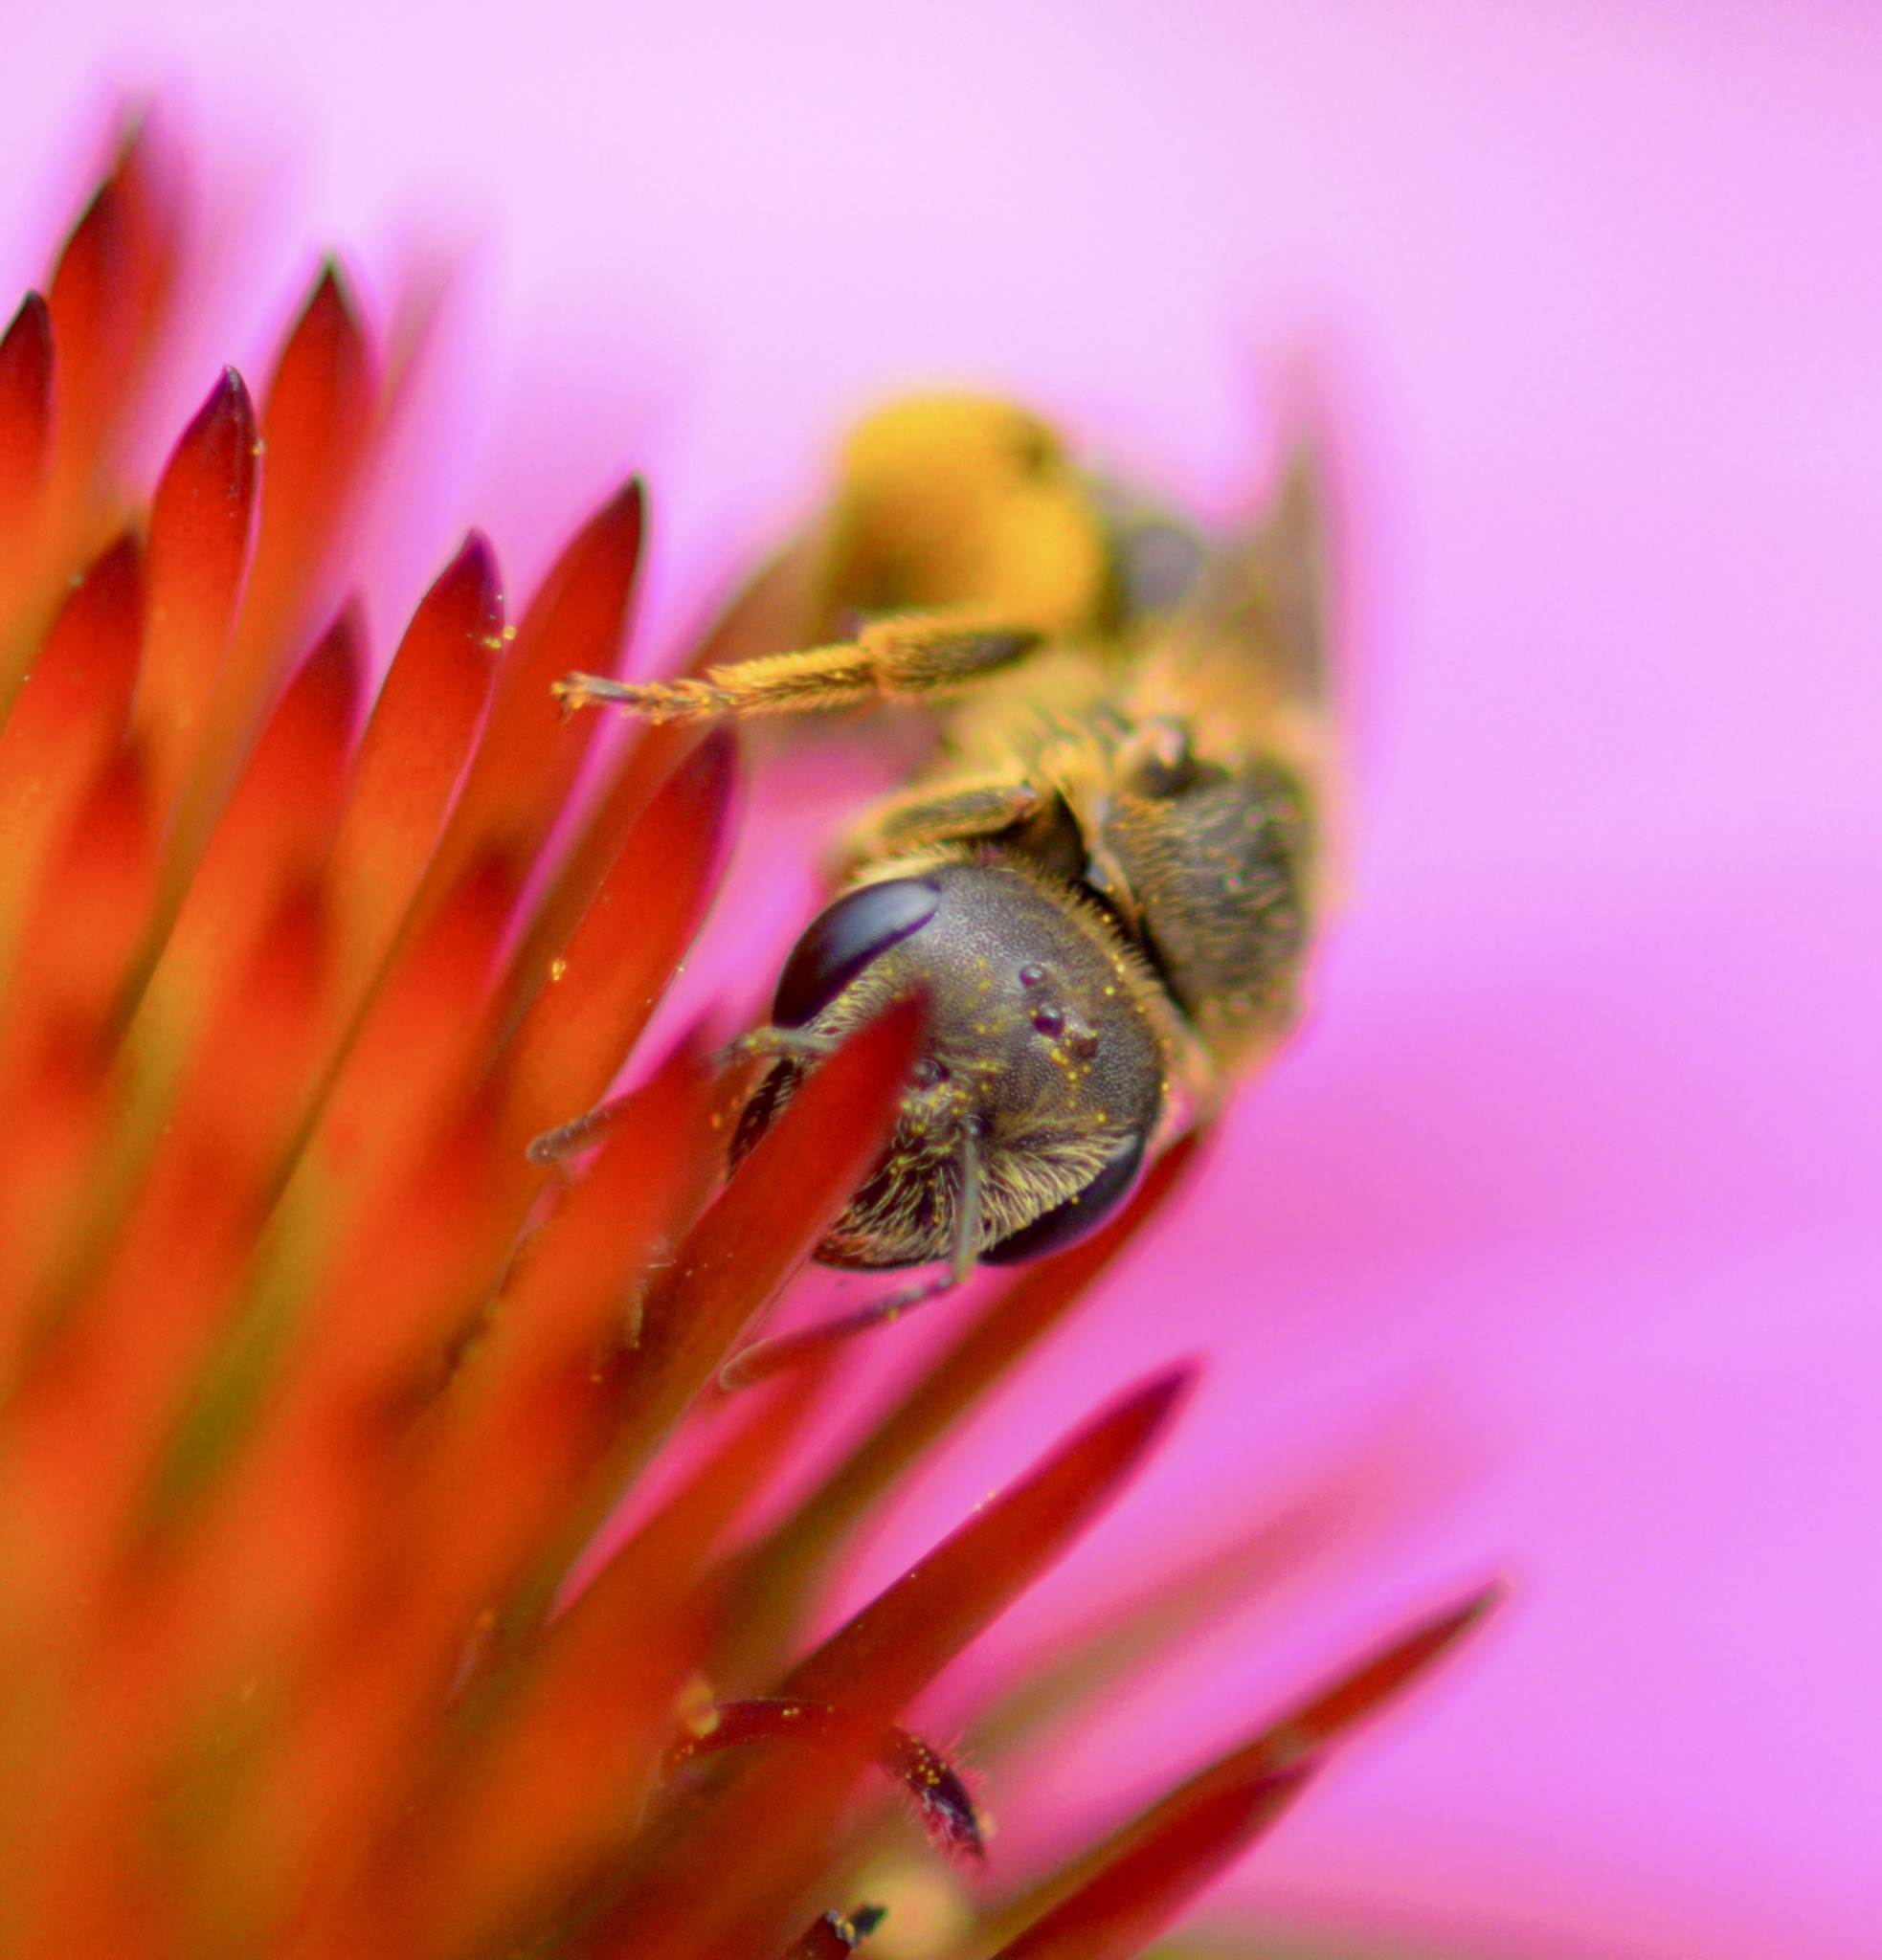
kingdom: Animalia
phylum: Arthropoda
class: Insecta
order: Hymenoptera
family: Halictidae
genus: Halictus
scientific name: Halictus ligatus
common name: Ligated furrow bee
